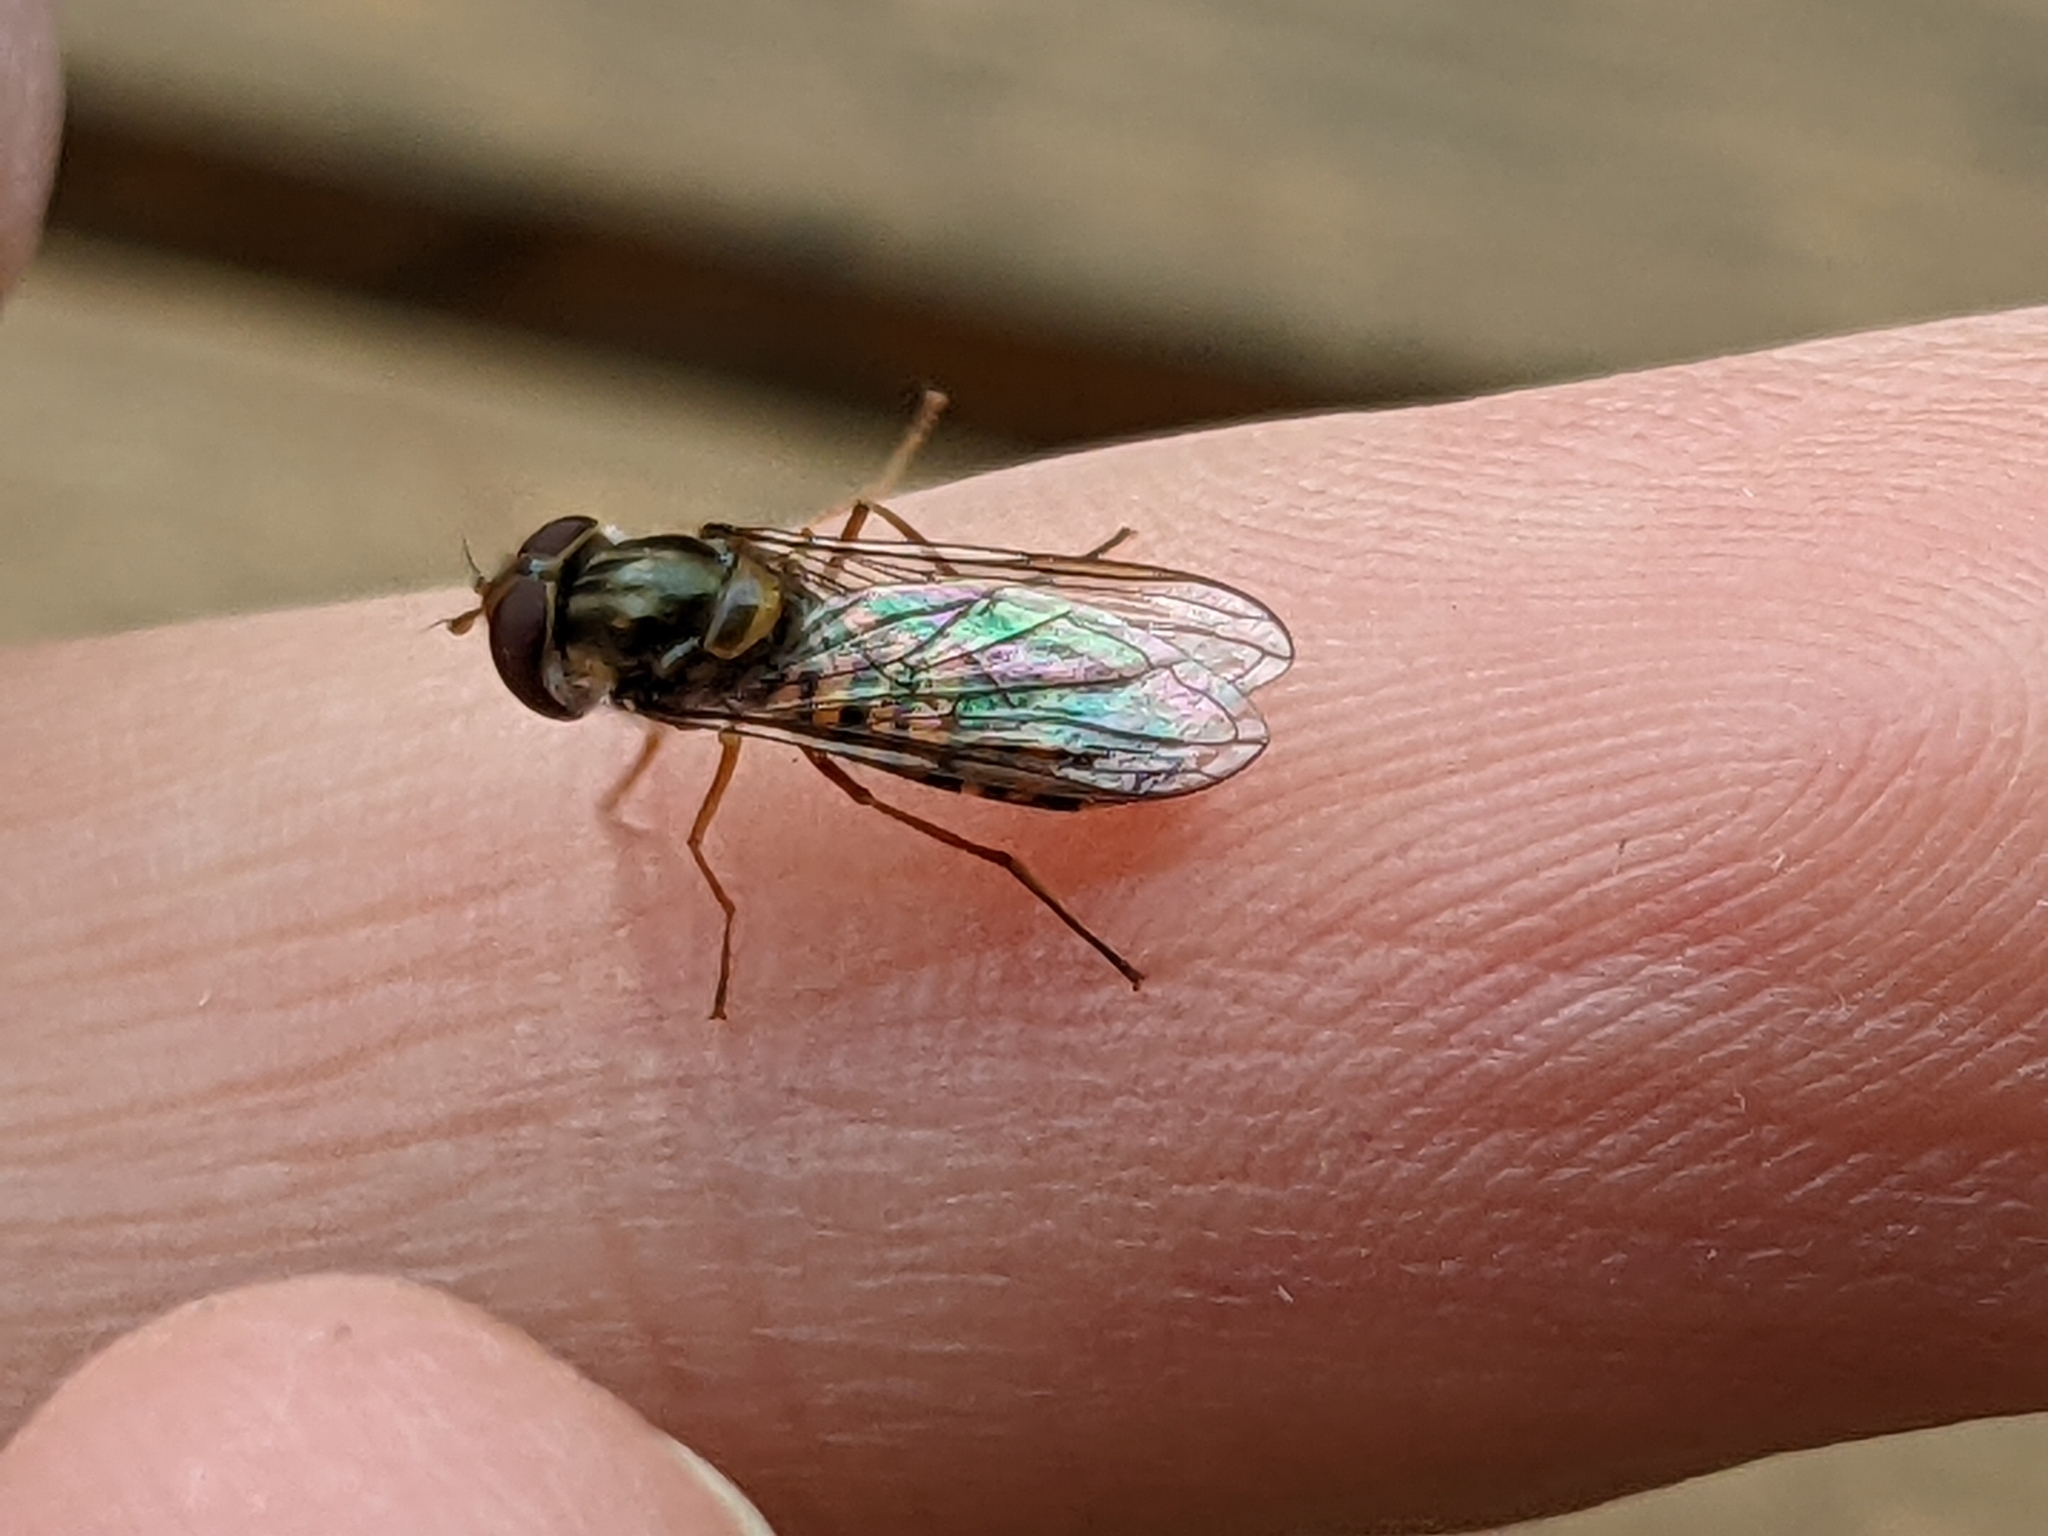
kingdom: Animalia
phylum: Arthropoda
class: Insecta
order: Diptera
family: Syrphidae
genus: Episyrphus
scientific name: Episyrphus balteatus
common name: Marmalade hoverfly
